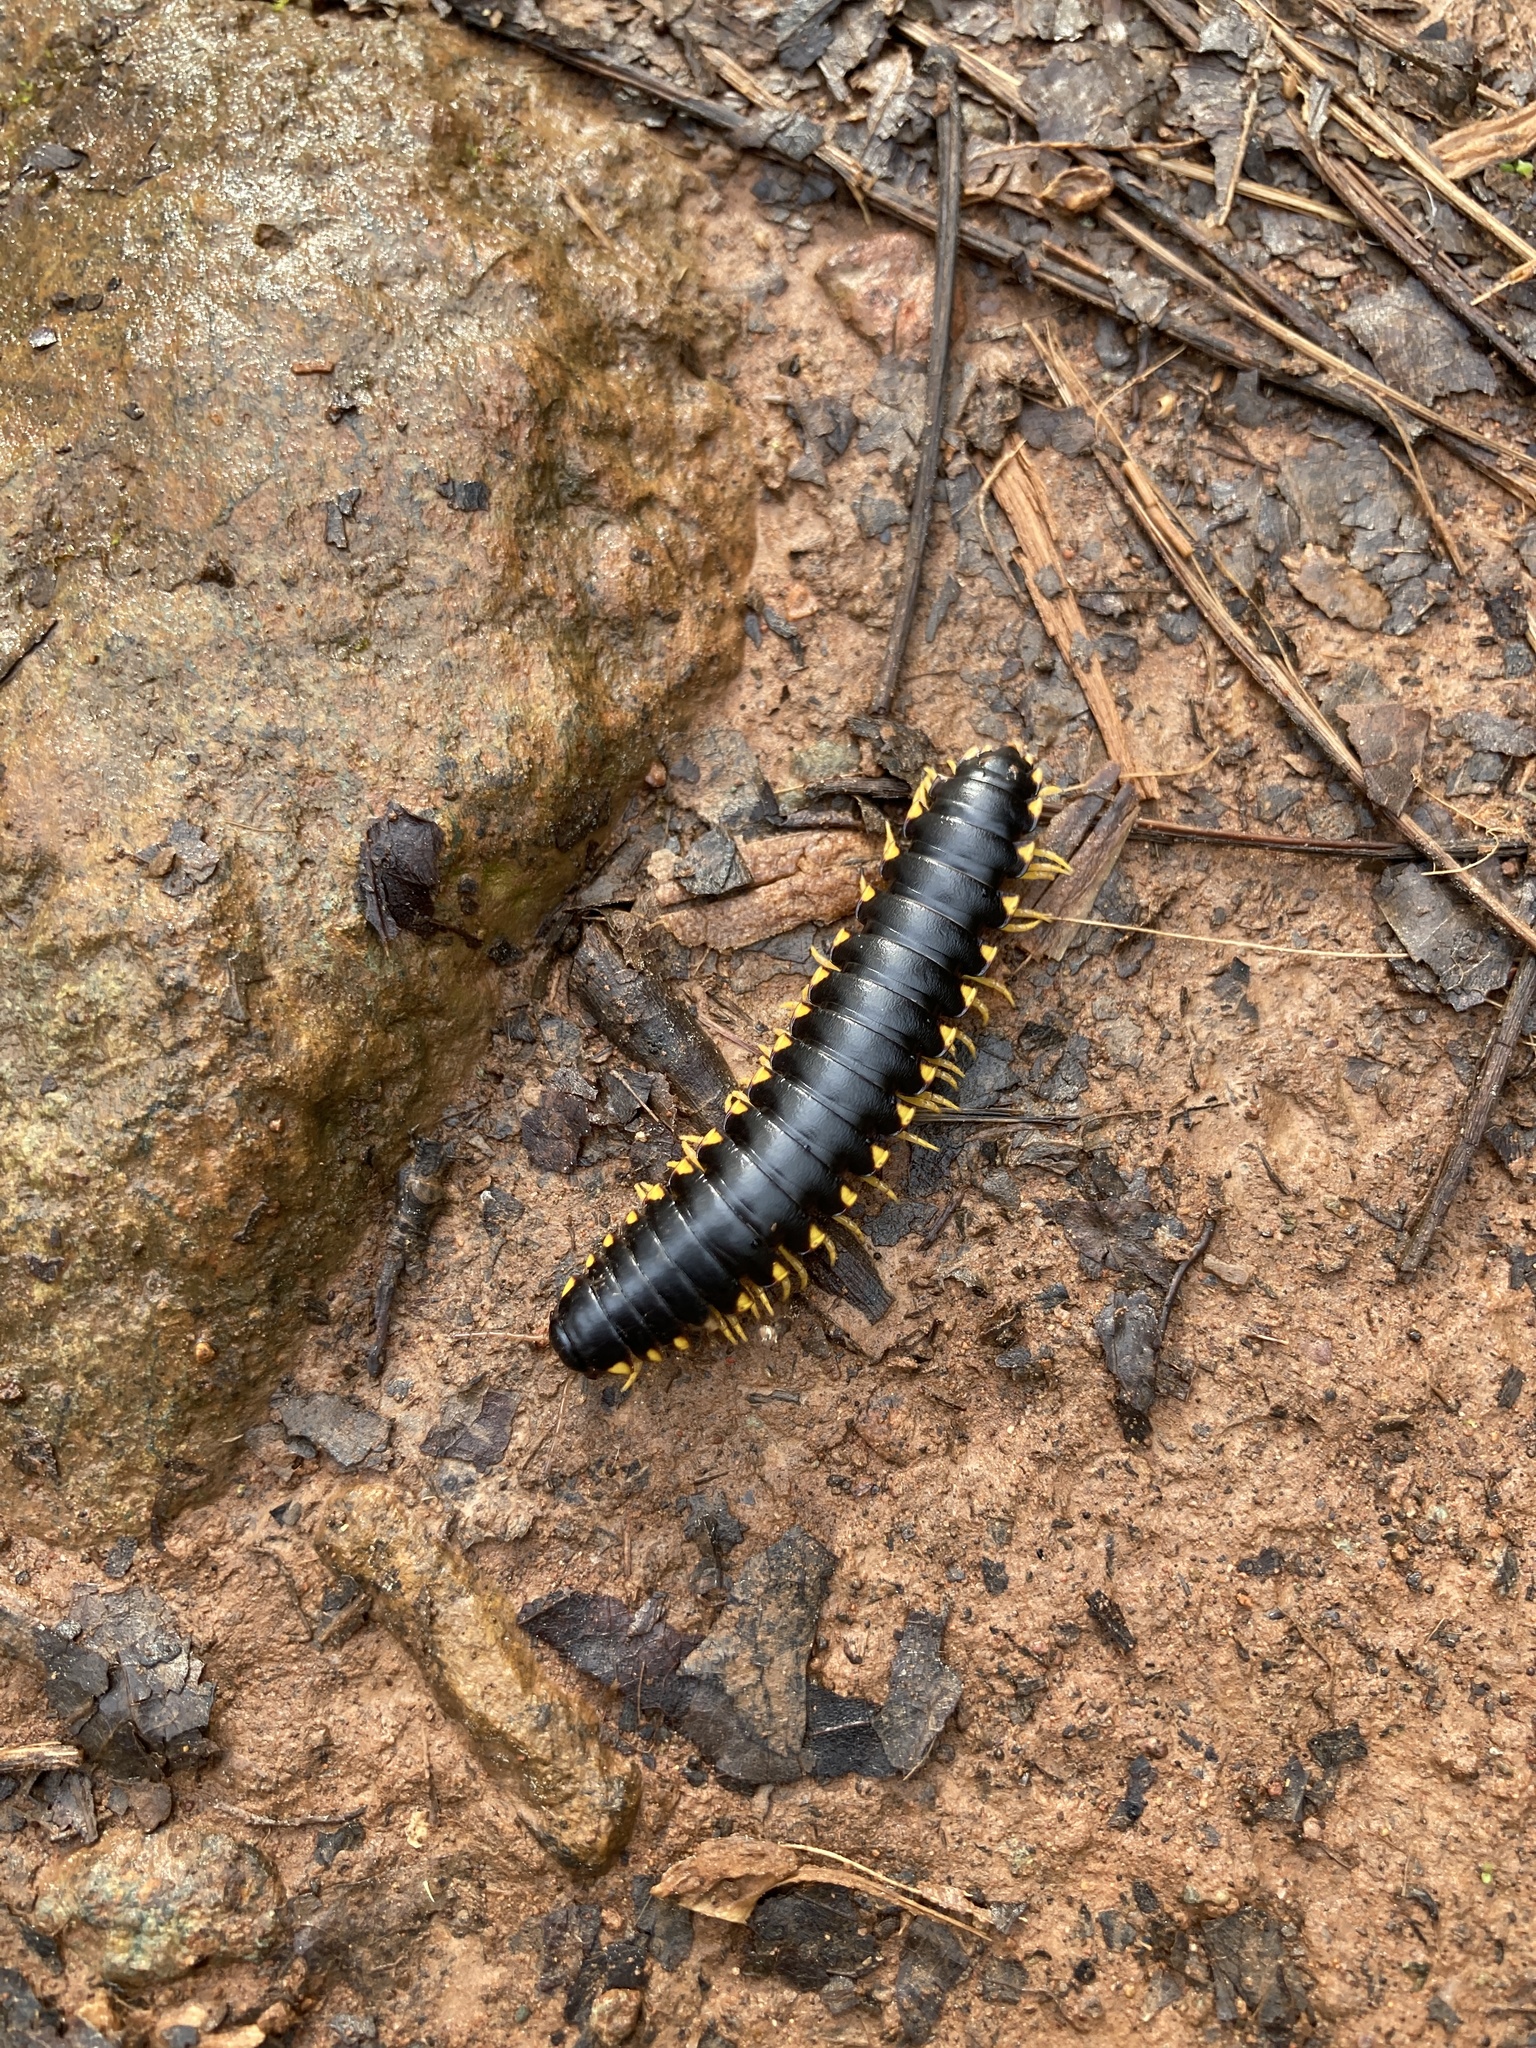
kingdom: Animalia
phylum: Arthropoda
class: Diplopoda
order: Polydesmida
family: Xystodesmidae
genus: Apheloria
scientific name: Apheloria tigana
